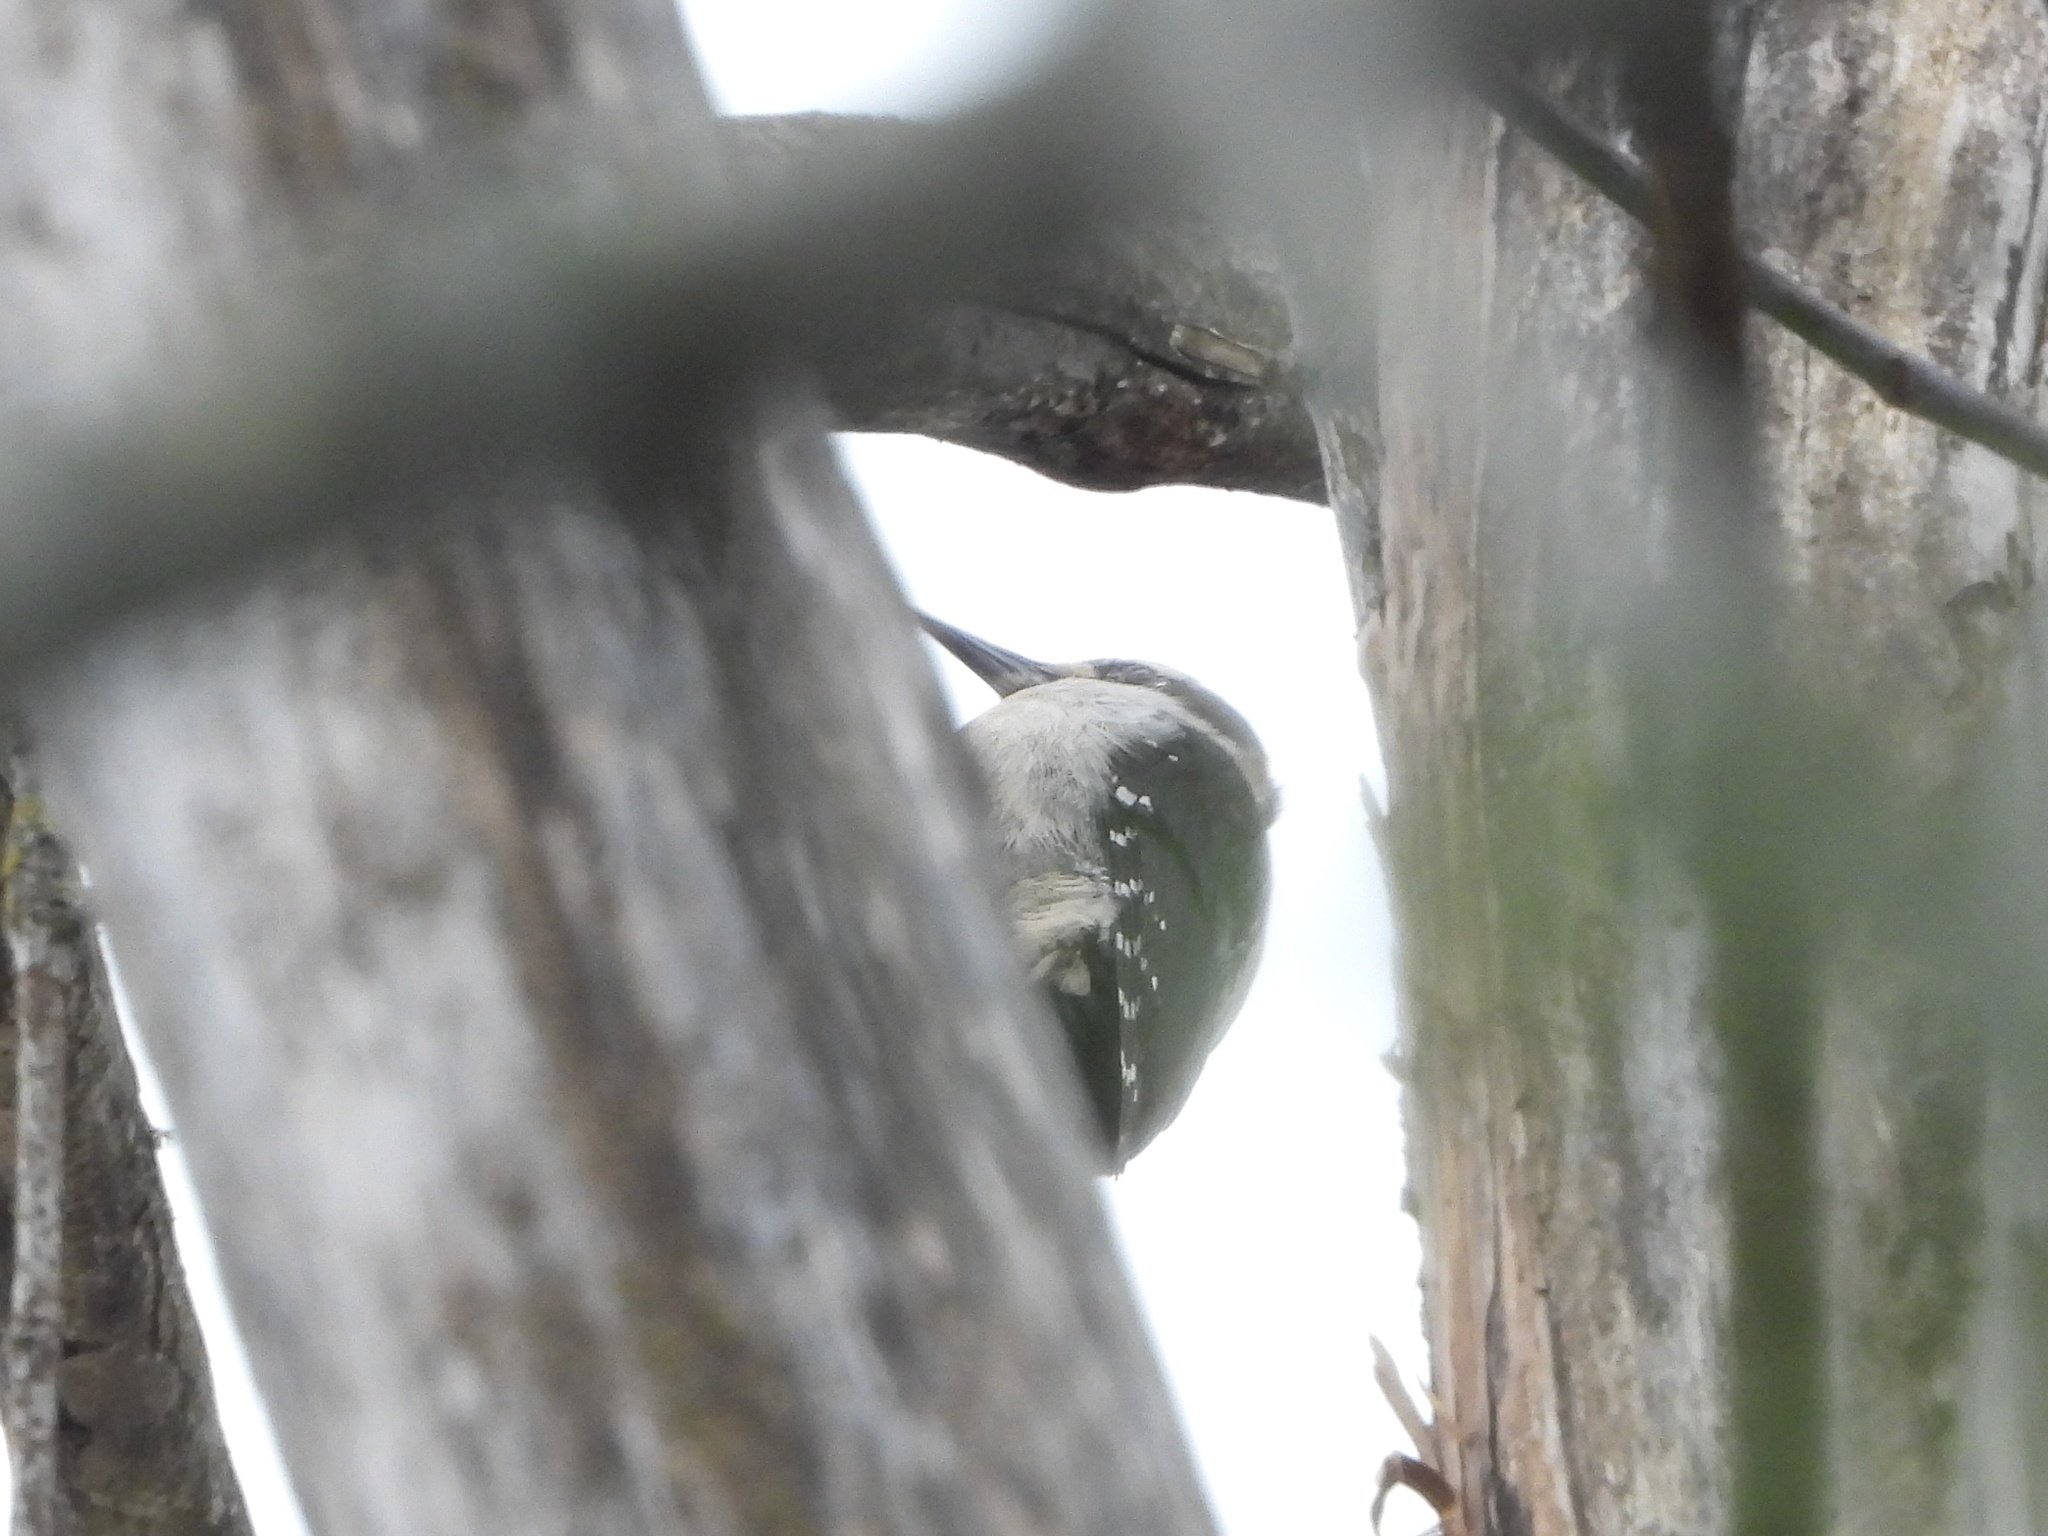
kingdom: Animalia
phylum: Chordata
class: Aves
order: Piciformes
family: Picidae
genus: Leuconotopicus
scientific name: Leuconotopicus villosus
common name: Hairy woodpecker
